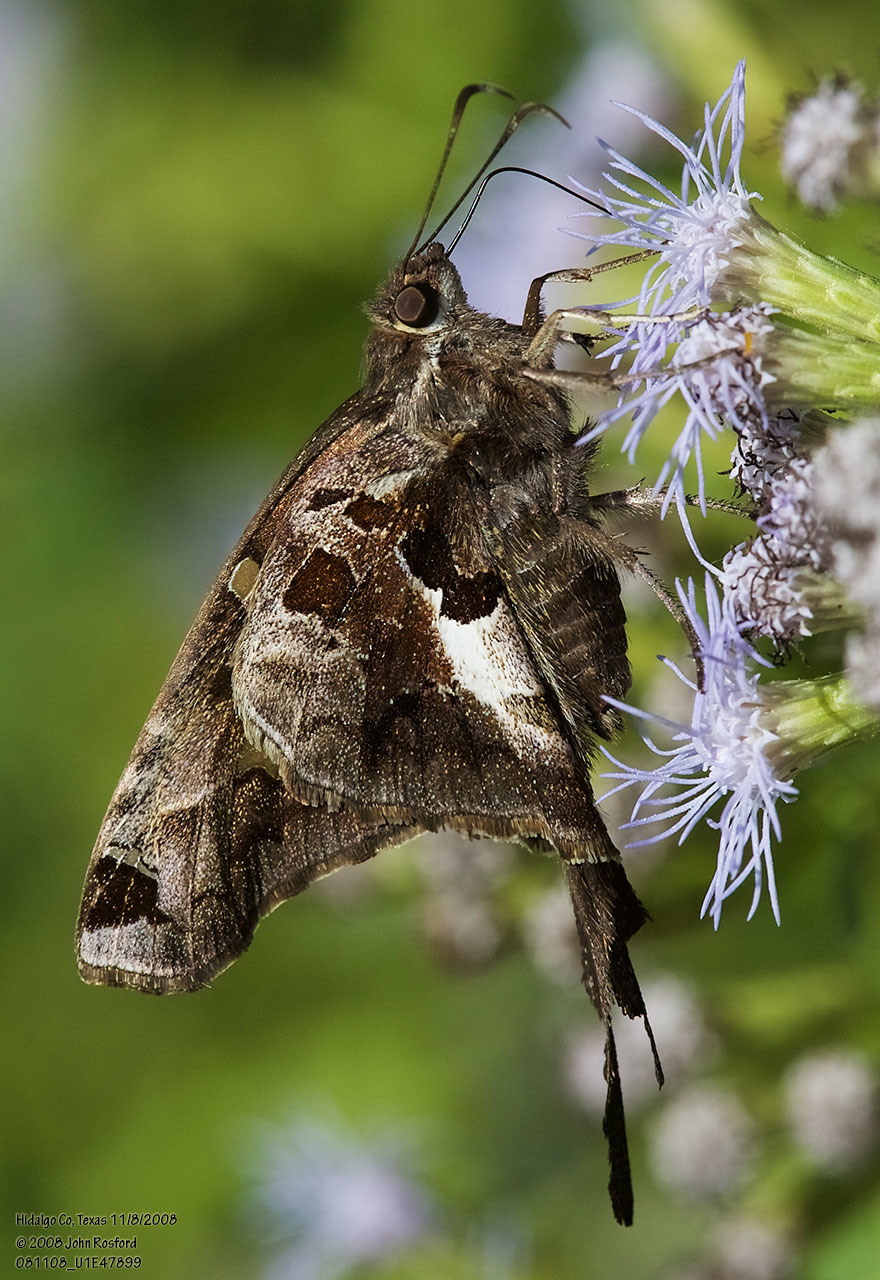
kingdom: Animalia
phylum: Arthropoda
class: Insecta
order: Lepidoptera
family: Hesperiidae
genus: Chioides
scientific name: Chioides zilpa
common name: Zilpa longtail
